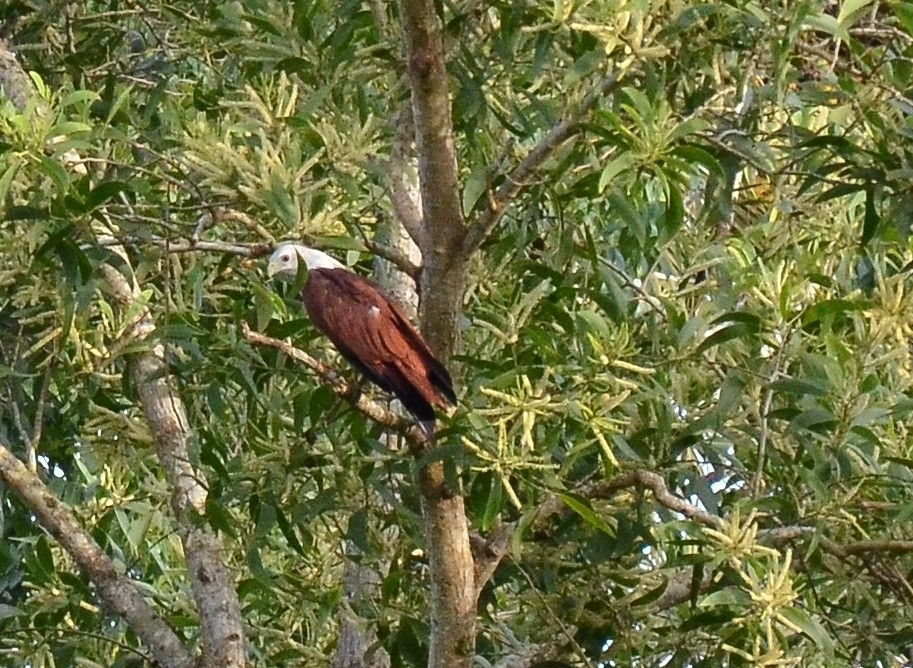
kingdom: Animalia
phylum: Chordata
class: Aves
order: Accipitriformes
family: Accipitridae
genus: Haliastur
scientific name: Haliastur indus
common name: Brahminy kite
